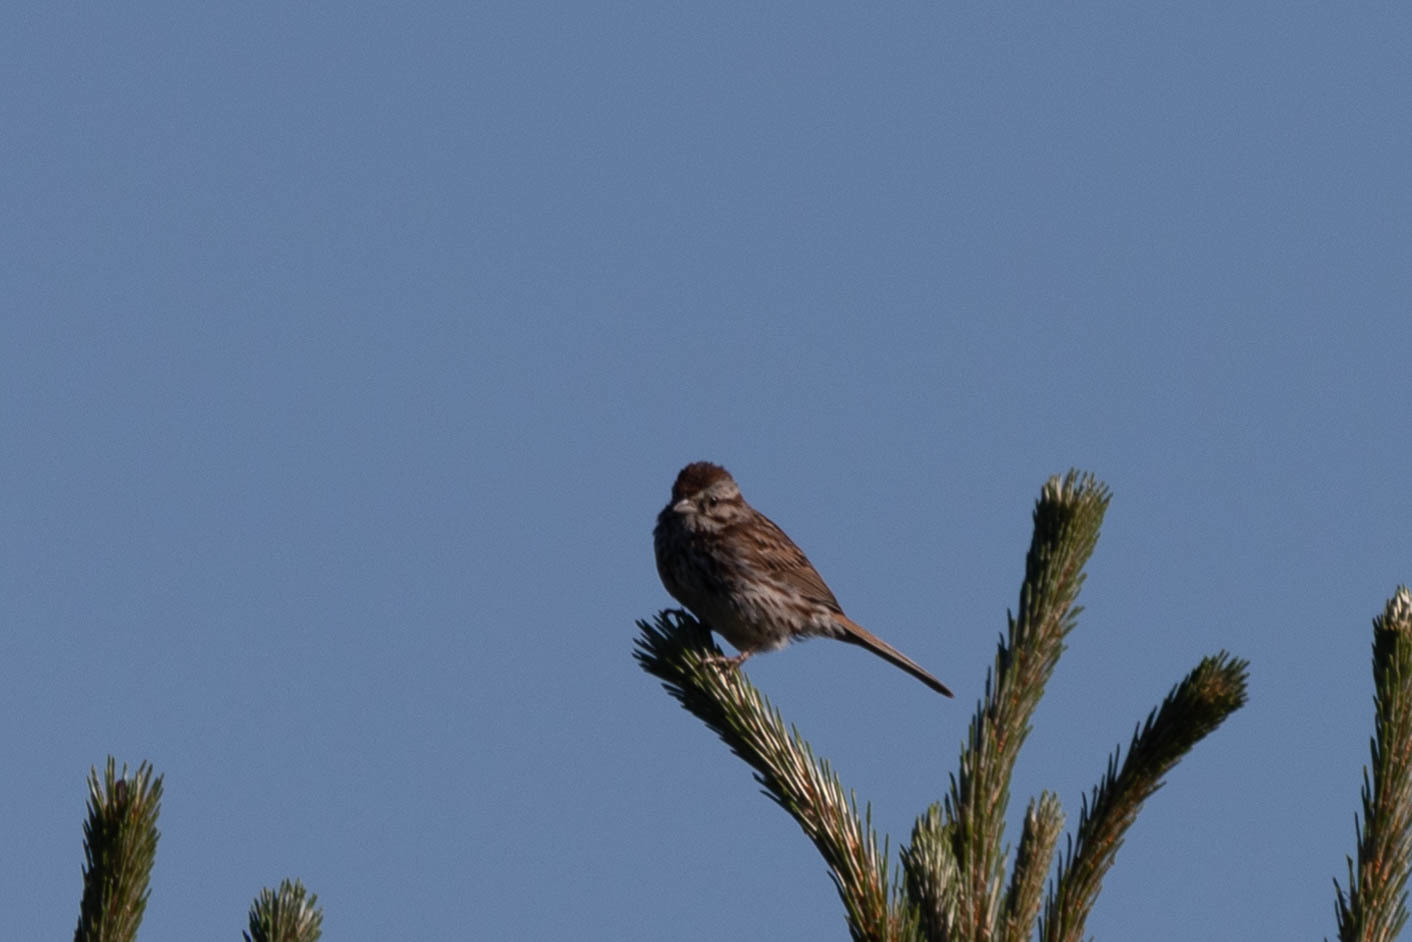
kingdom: Animalia
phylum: Chordata
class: Aves
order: Passeriformes
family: Passerellidae
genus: Melospiza
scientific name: Melospiza melodia
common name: Song sparrow
